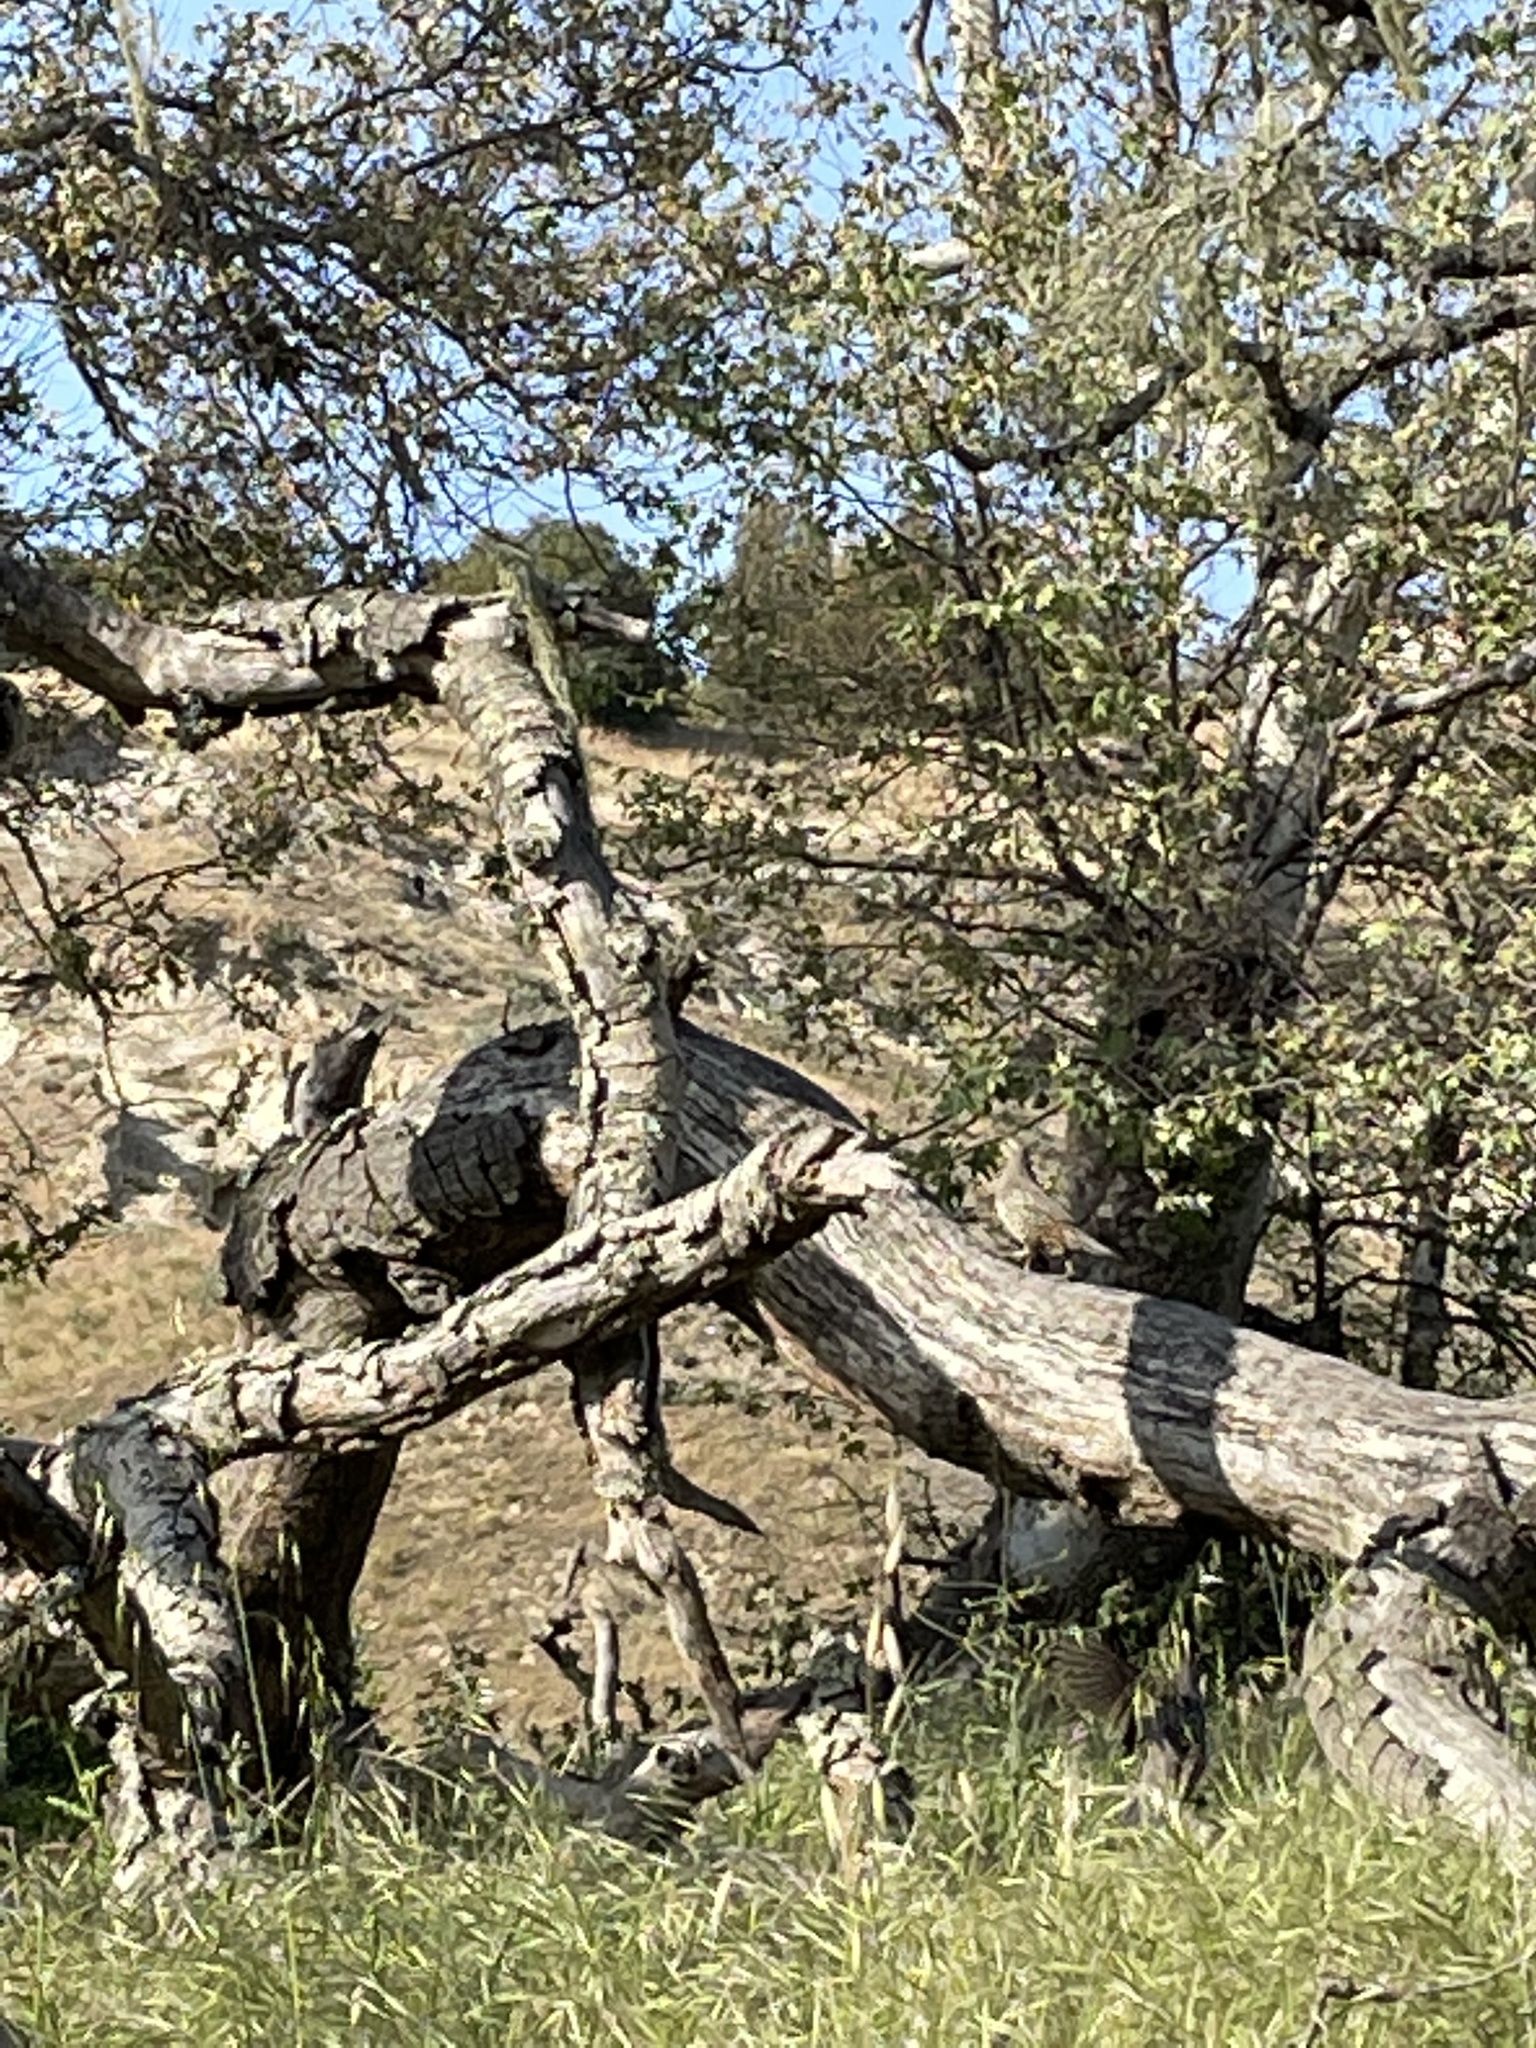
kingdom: Animalia
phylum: Chordata
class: Aves
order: Galliformes
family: Odontophoridae
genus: Callipepla
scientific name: Callipepla californica
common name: California quail
